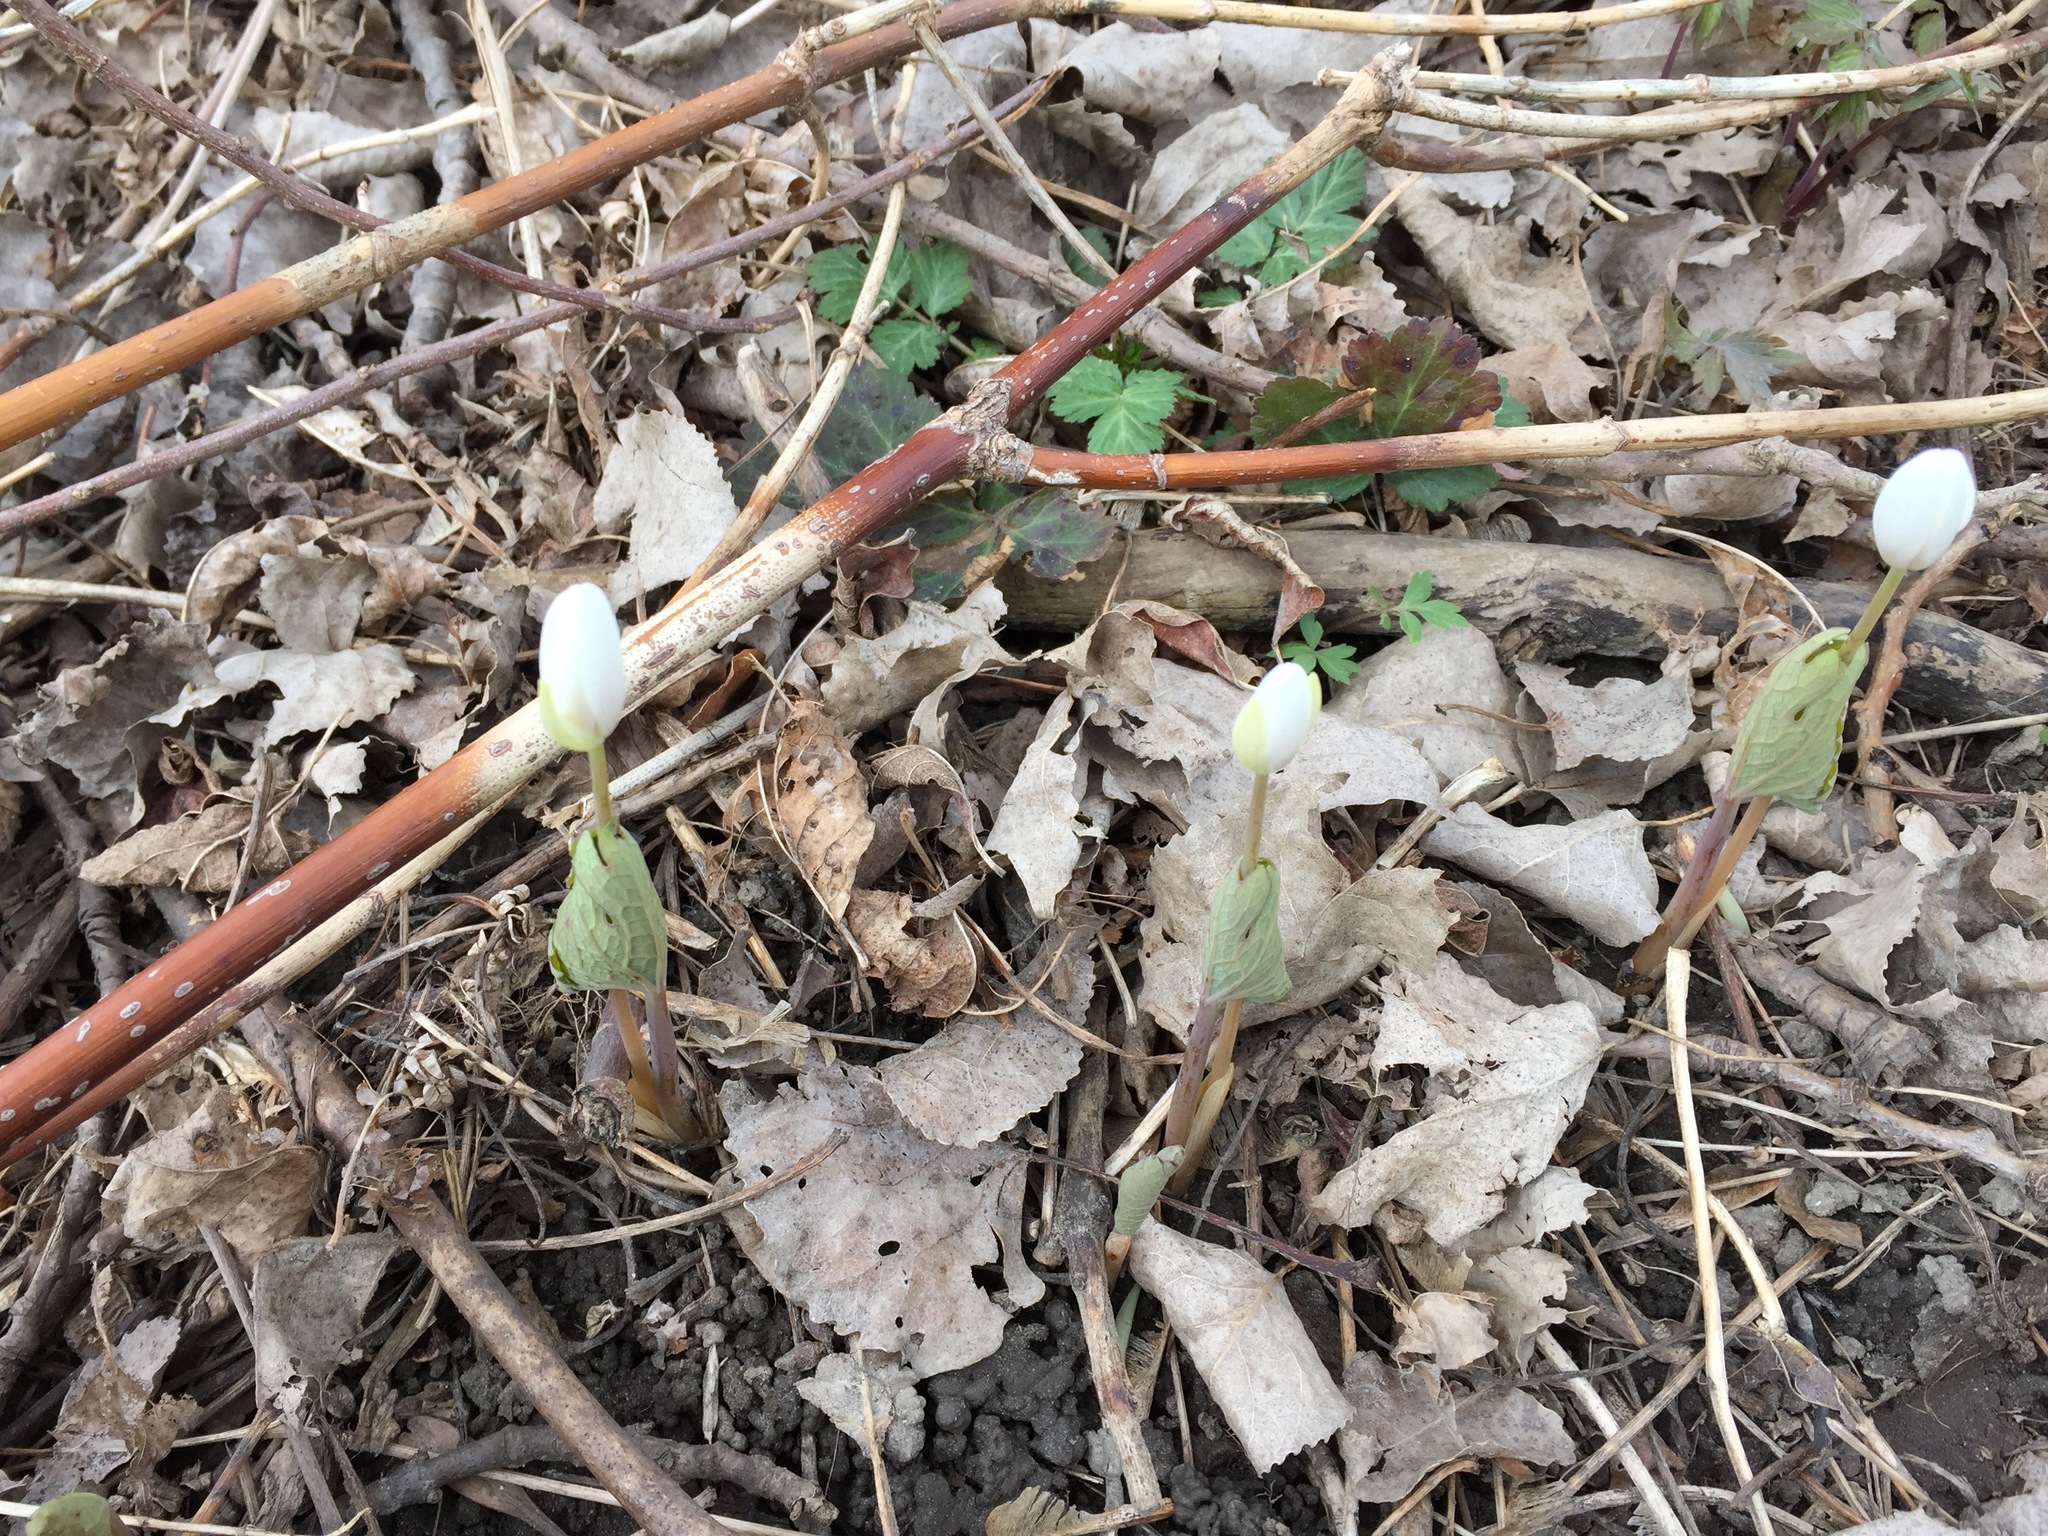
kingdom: Plantae
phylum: Tracheophyta
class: Magnoliopsida
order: Ranunculales
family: Papaveraceae
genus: Sanguinaria
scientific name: Sanguinaria canadensis
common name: Bloodroot
